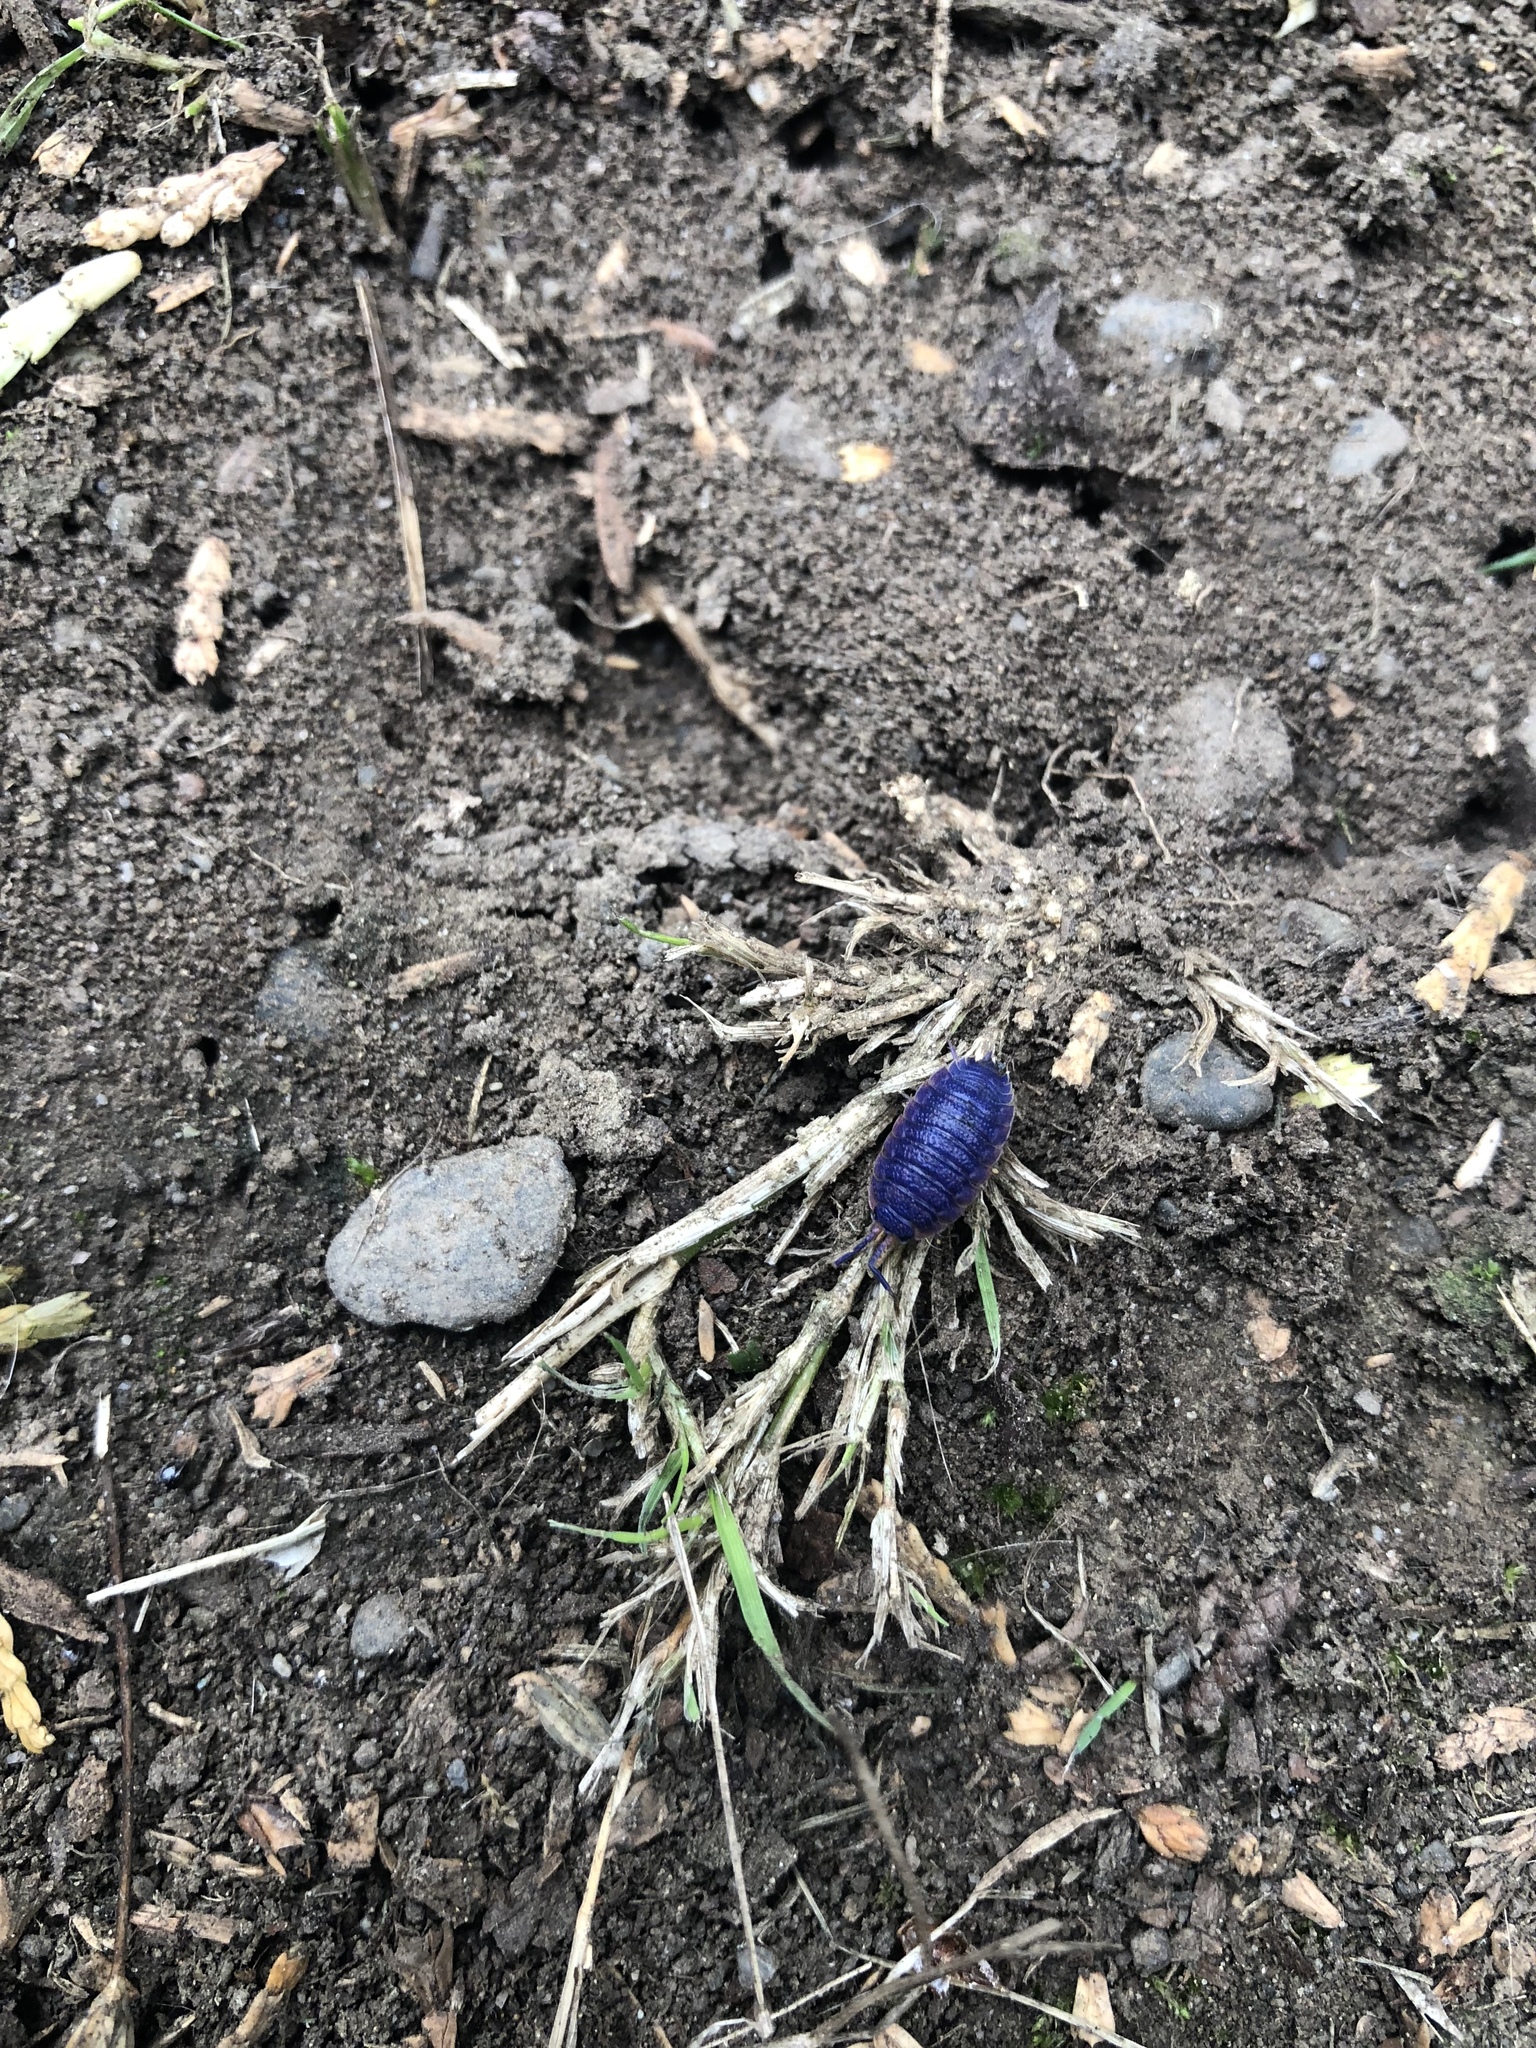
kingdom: Animalia
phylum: Arthropoda
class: Malacostraca
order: Isopoda
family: Porcellionidae
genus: Porcellio
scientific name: Porcellio scaber
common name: Common rough woodlouse
